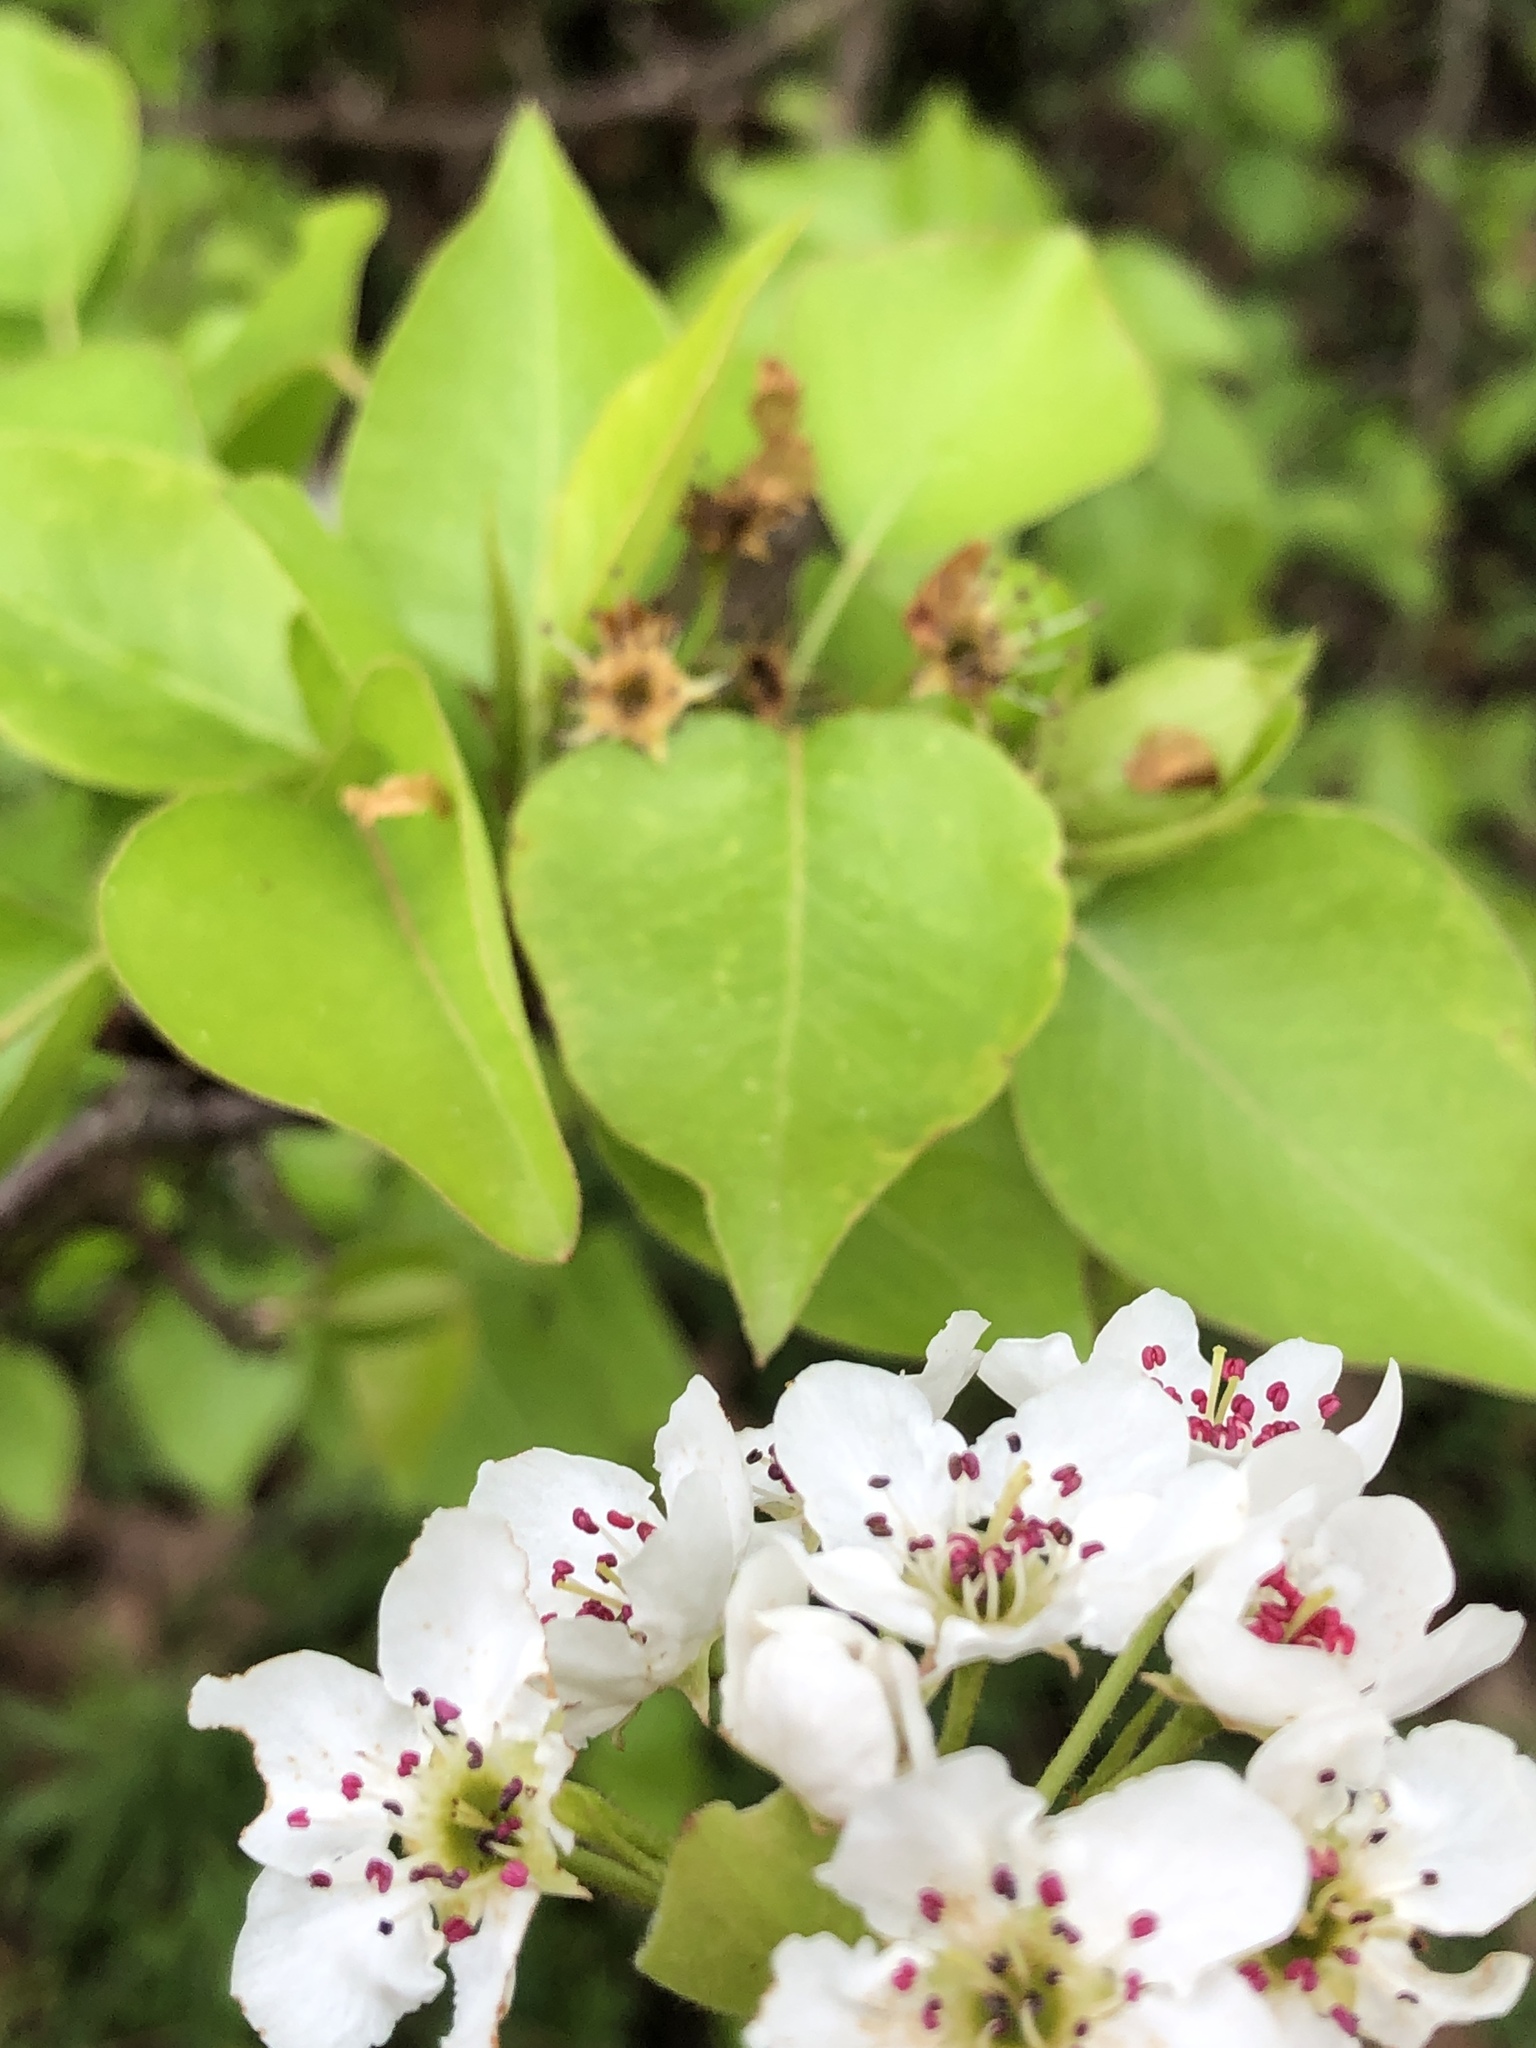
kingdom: Plantae
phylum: Tracheophyta
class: Magnoliopsida
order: Rosales
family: Rosaceae
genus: Pyrus
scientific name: Pyrus calleryana
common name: Callery pear
